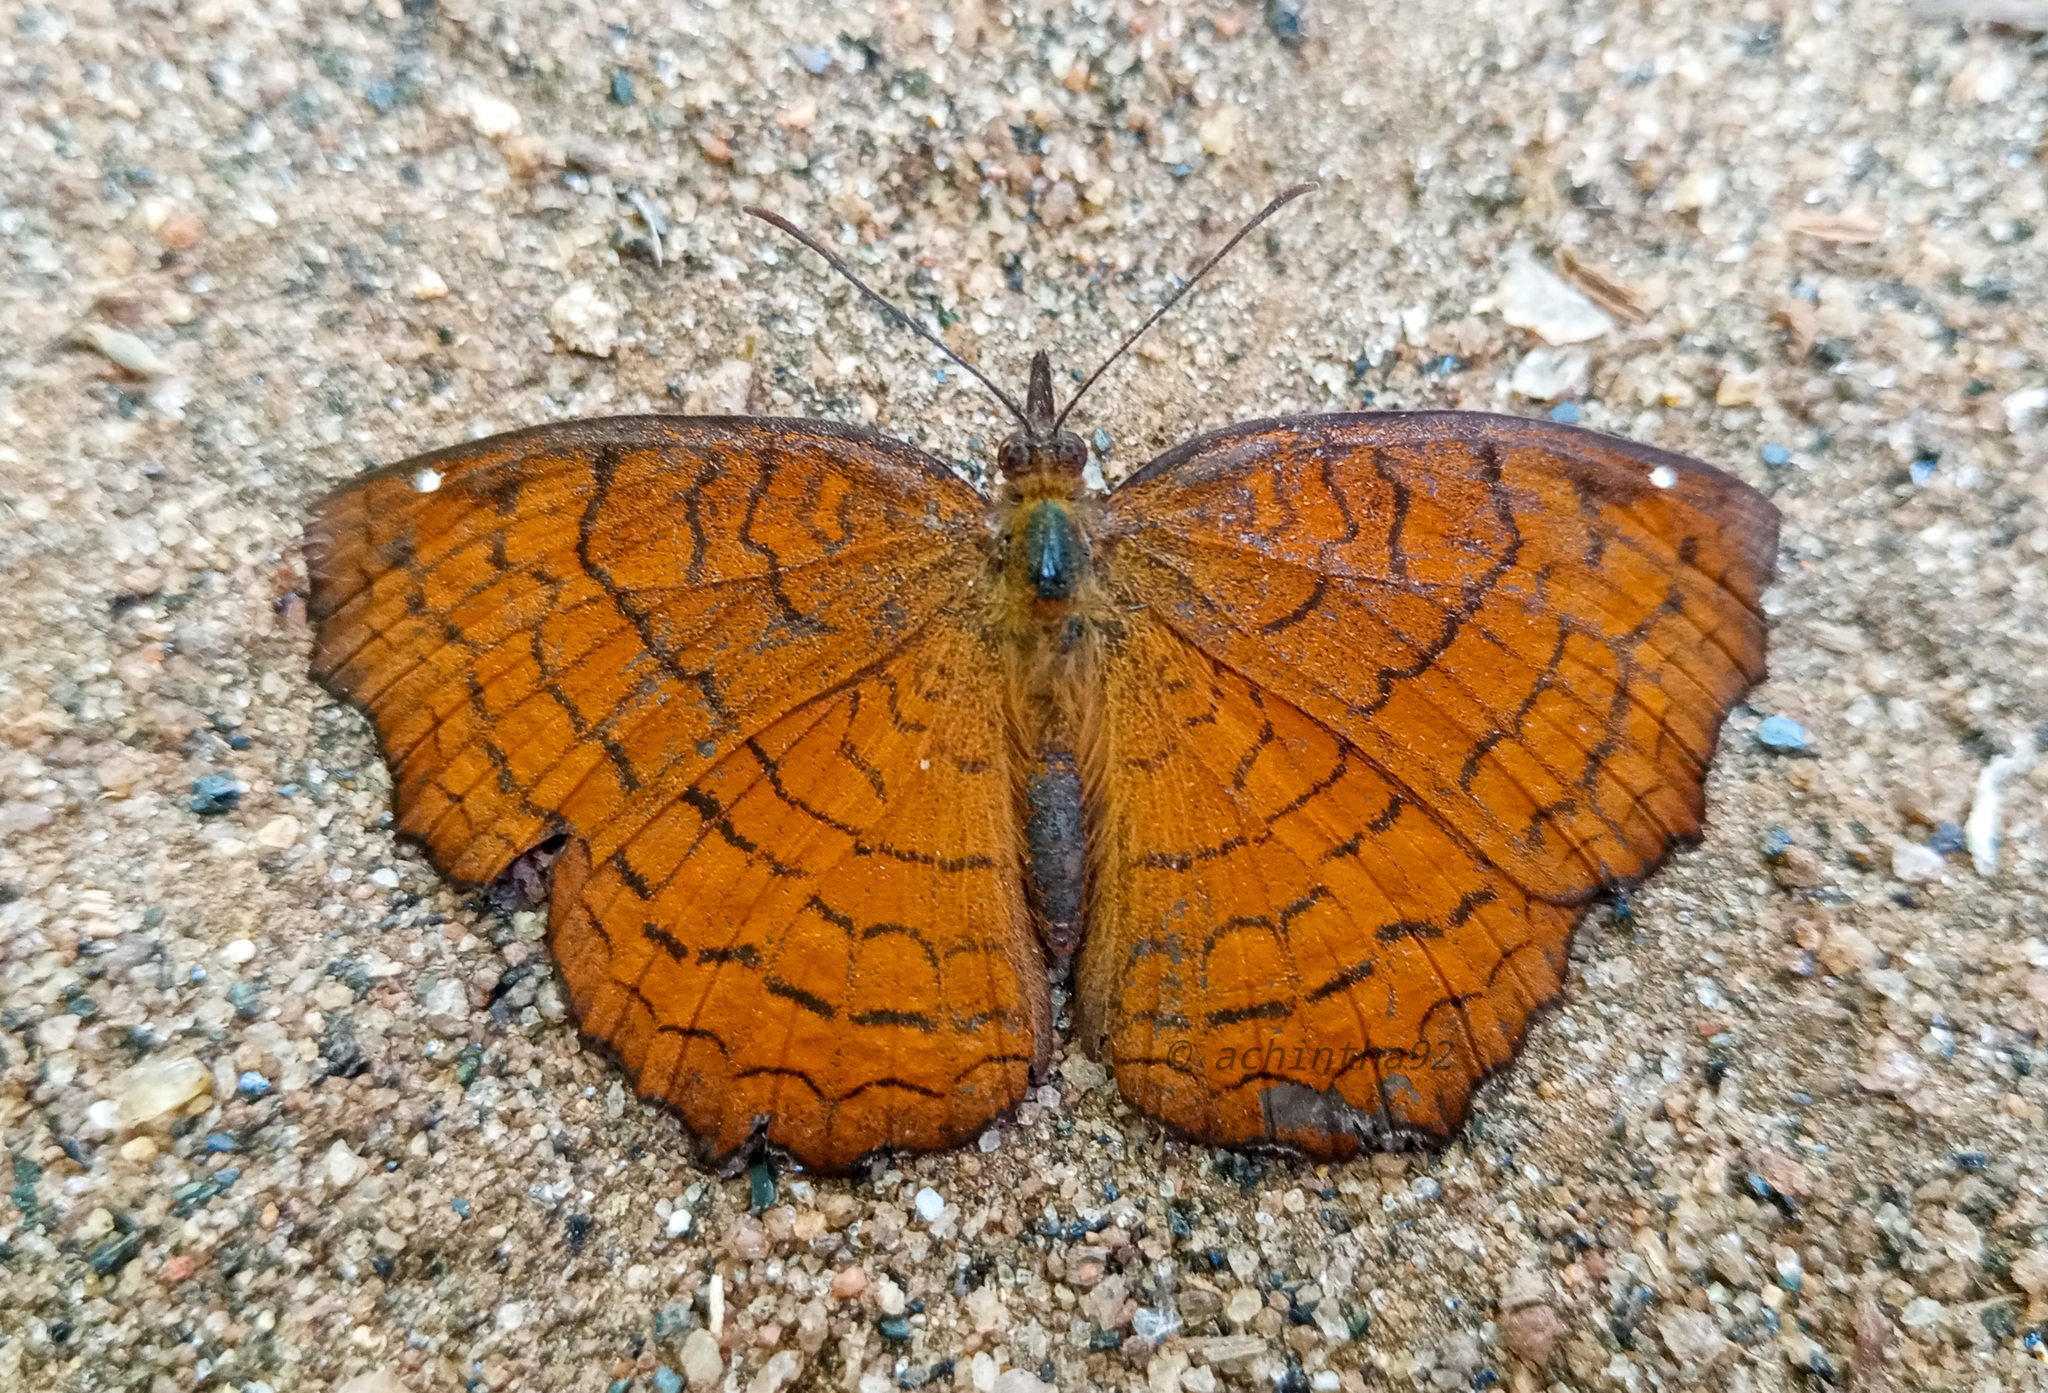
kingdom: Animalia
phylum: Arthropoda
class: Insecta
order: Lepidoptera
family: Nymphalidae
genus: Ariadne
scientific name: Ariadne ariadne
